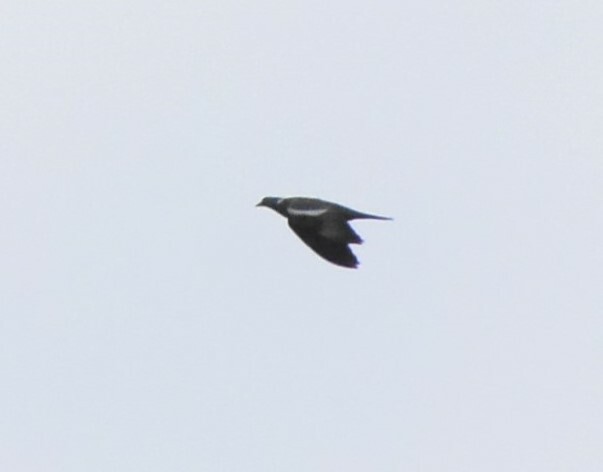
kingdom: Animalia
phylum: Chordata
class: Aves
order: Columbiformes
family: Columbidae
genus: Columba
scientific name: Columba palumbus
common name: Common wood pigeon
